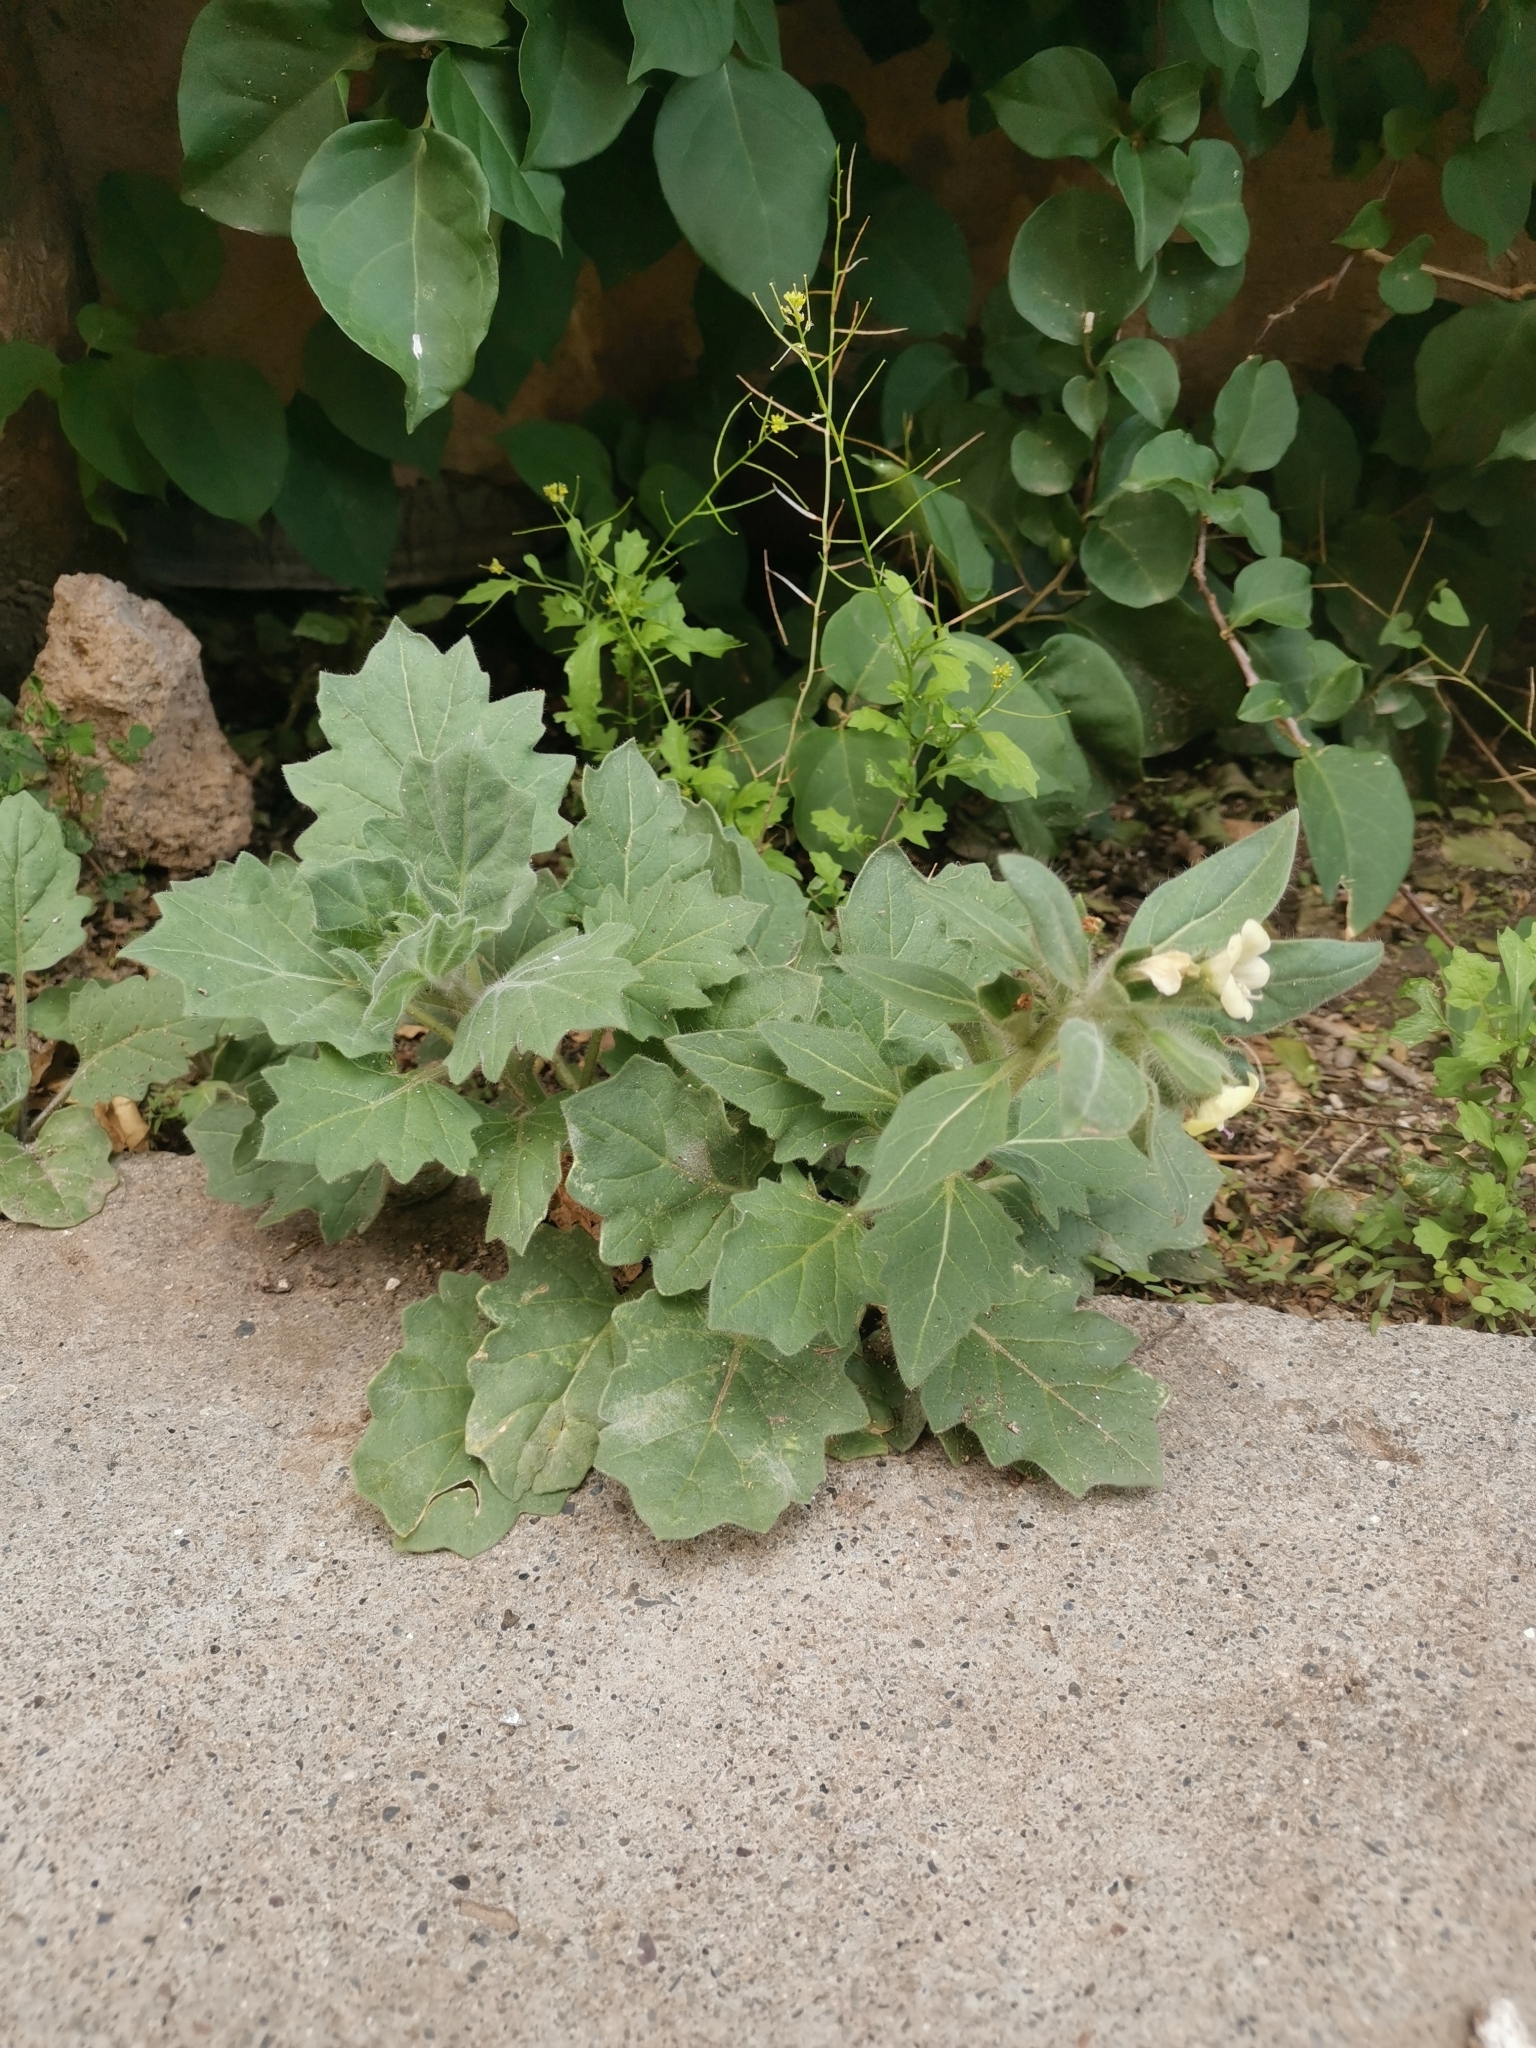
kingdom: Plantae
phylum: Tracheophyta
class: Magnoliopsida
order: Solanales
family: Solanaceae
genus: Hyoscyamus
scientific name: Hyoscyamus albus
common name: White henbane
